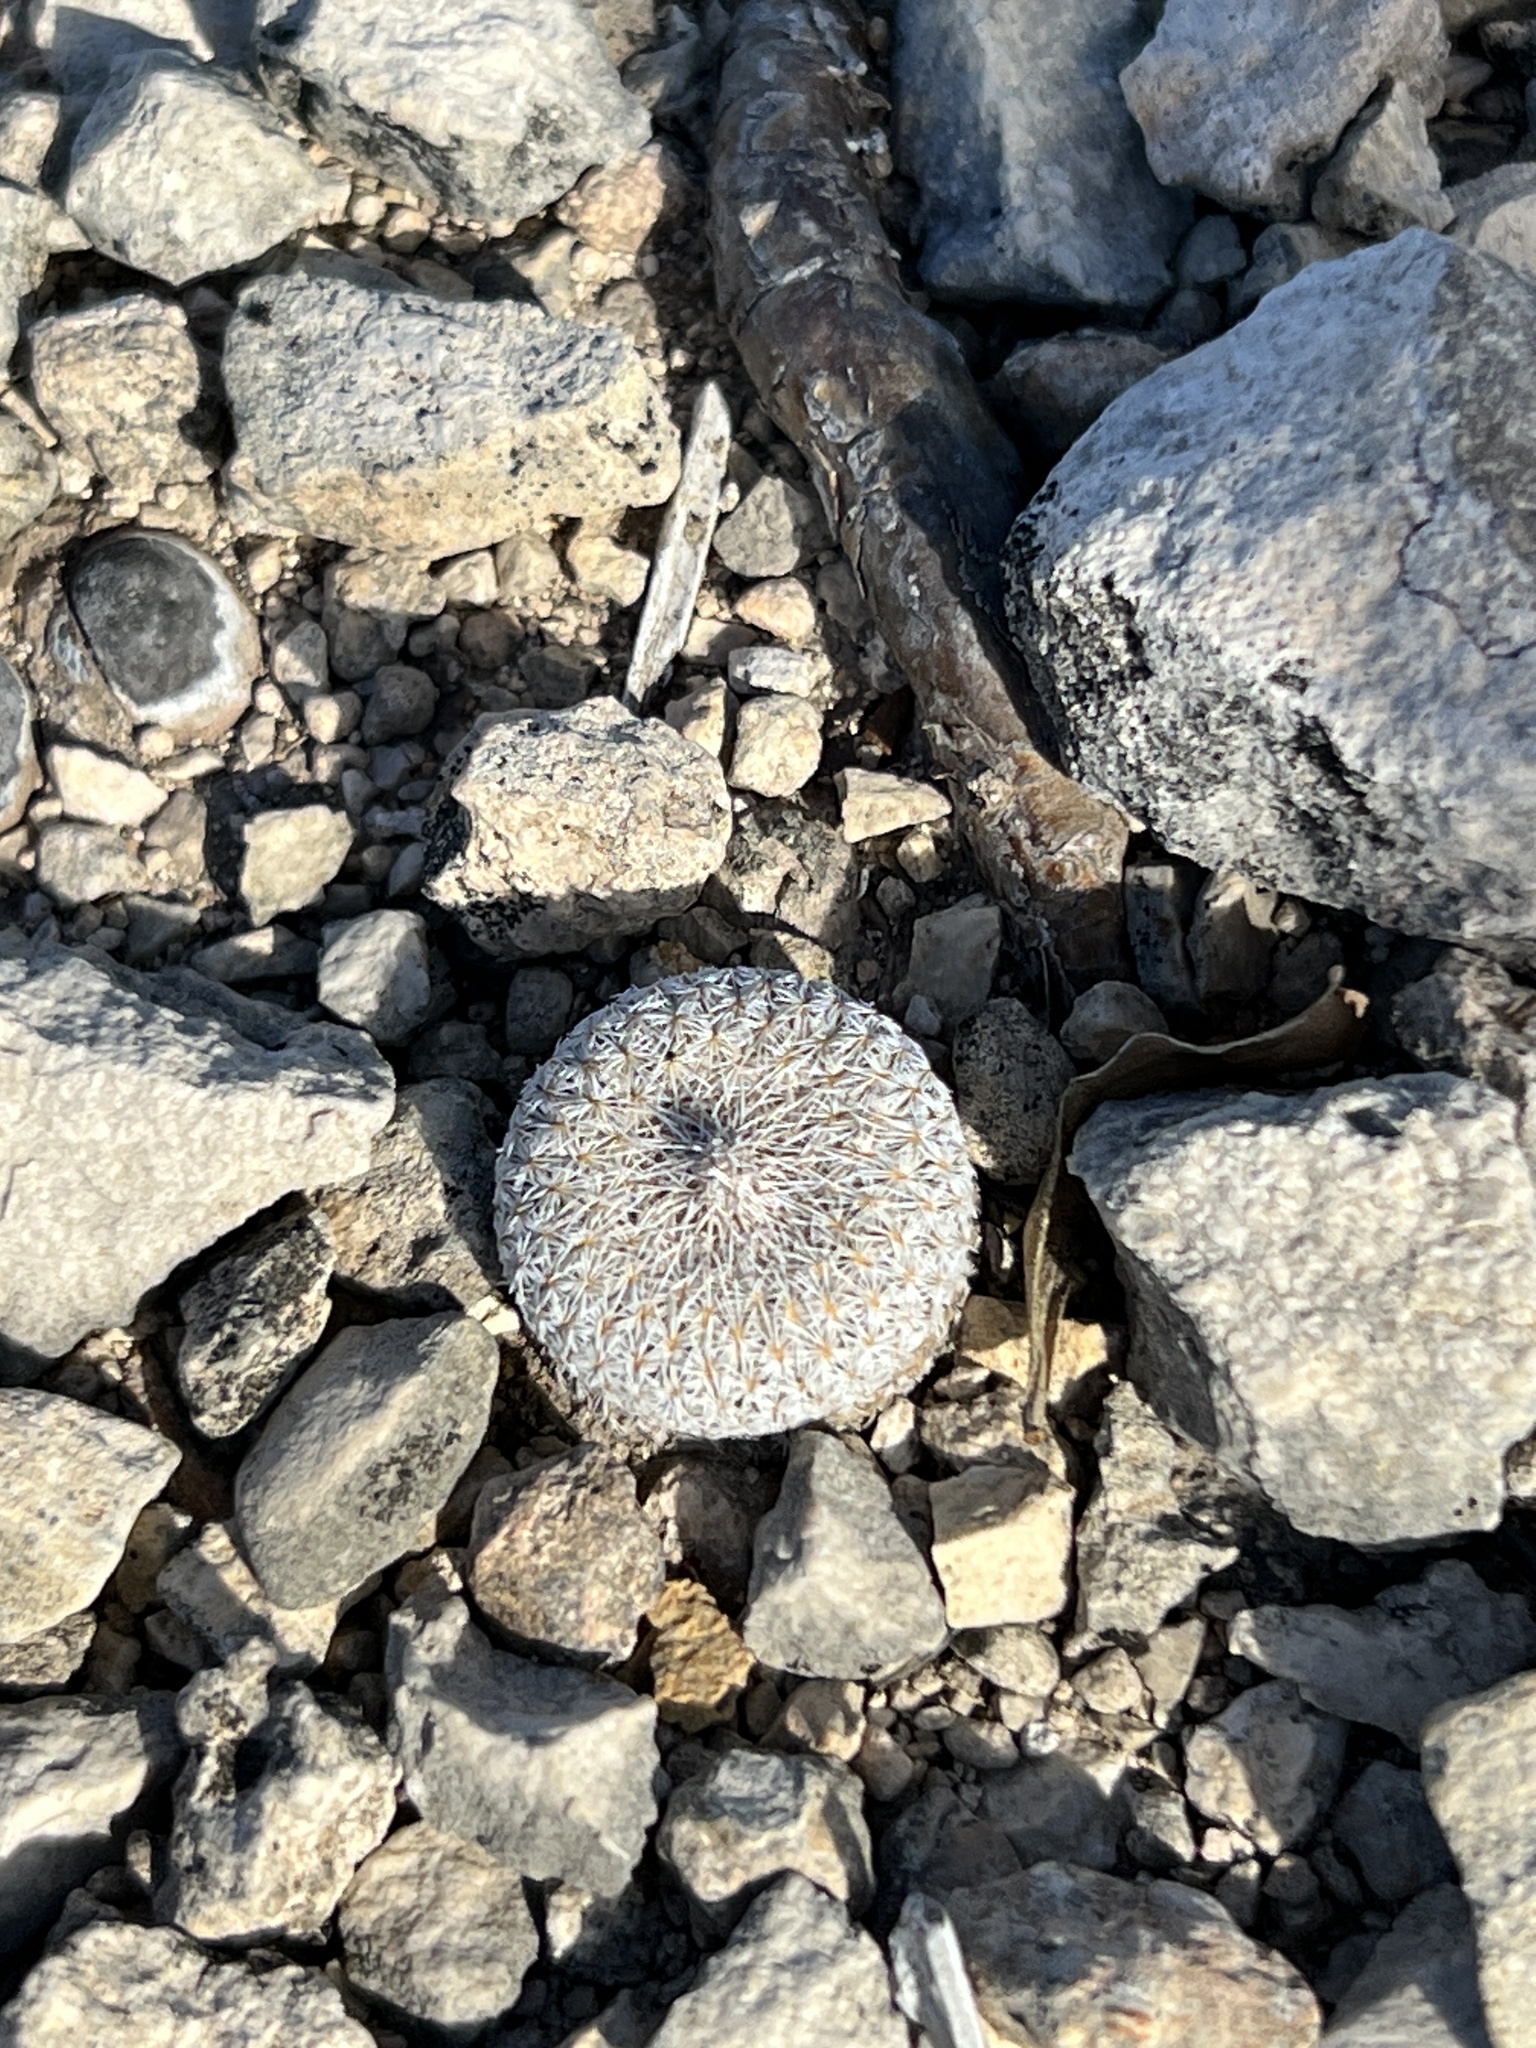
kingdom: Plantae
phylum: Tracheophyta
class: Magnoliopsida
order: Caryophyllales
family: Cactaceae
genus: Epithelantha
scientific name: Epithelantha micromeris
